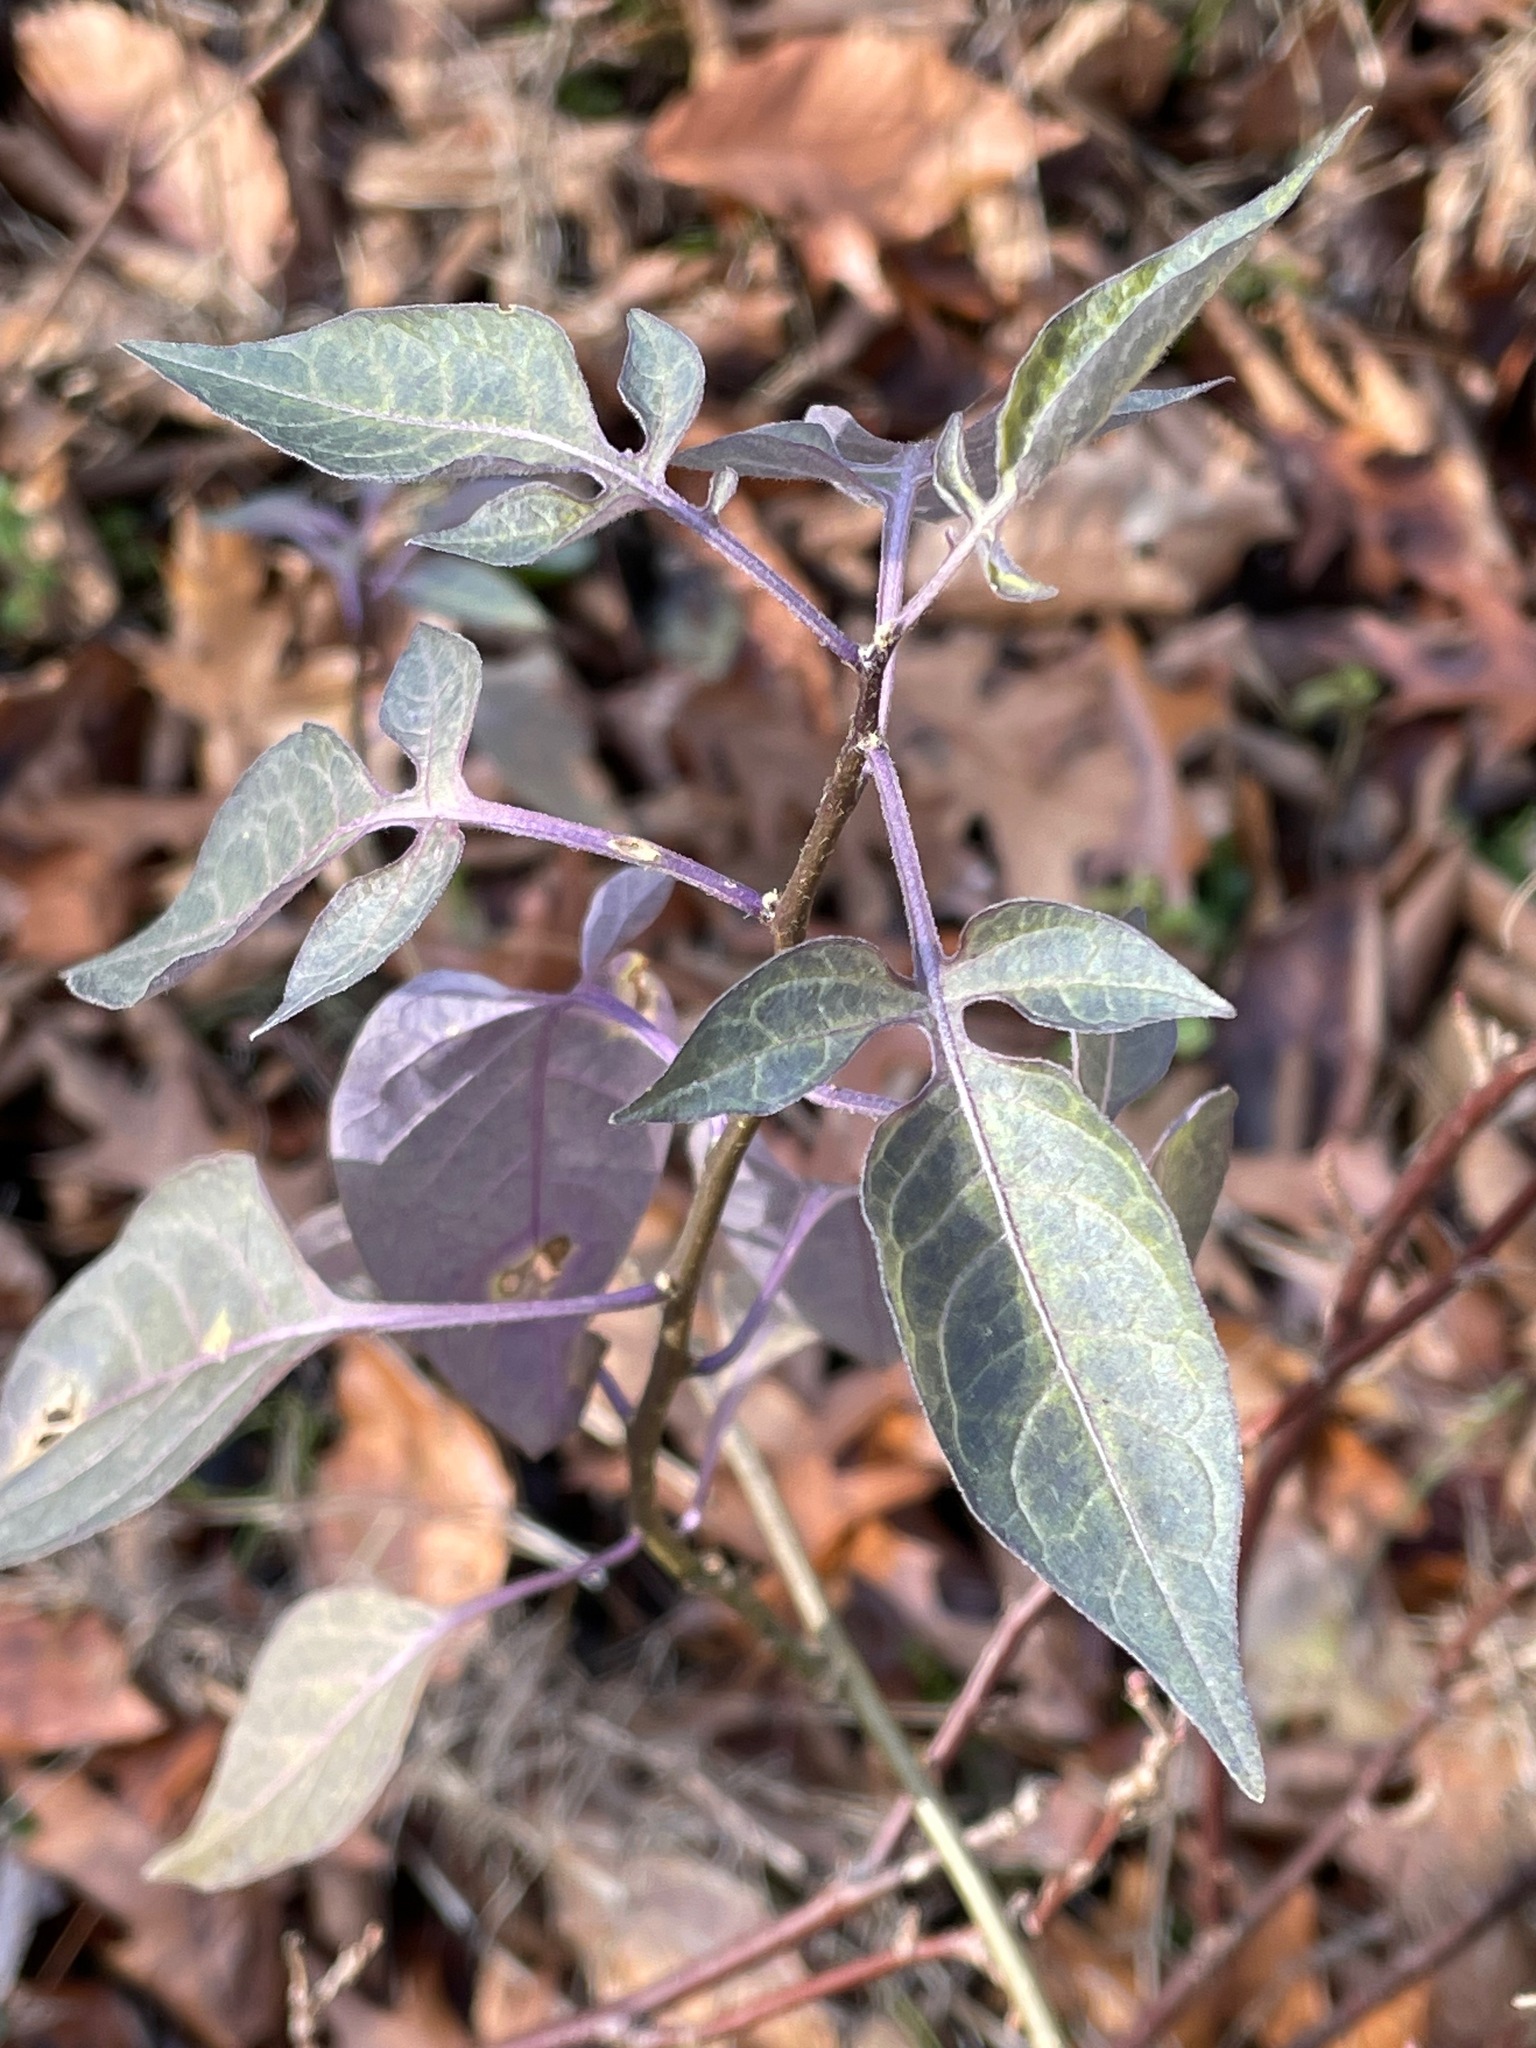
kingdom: Plantae
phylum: Tracheophyta
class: Magnoliopsida
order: Solanales
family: Solanaceae
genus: Solanum
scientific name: Solanum dulcamara
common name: Climbing nightshade
